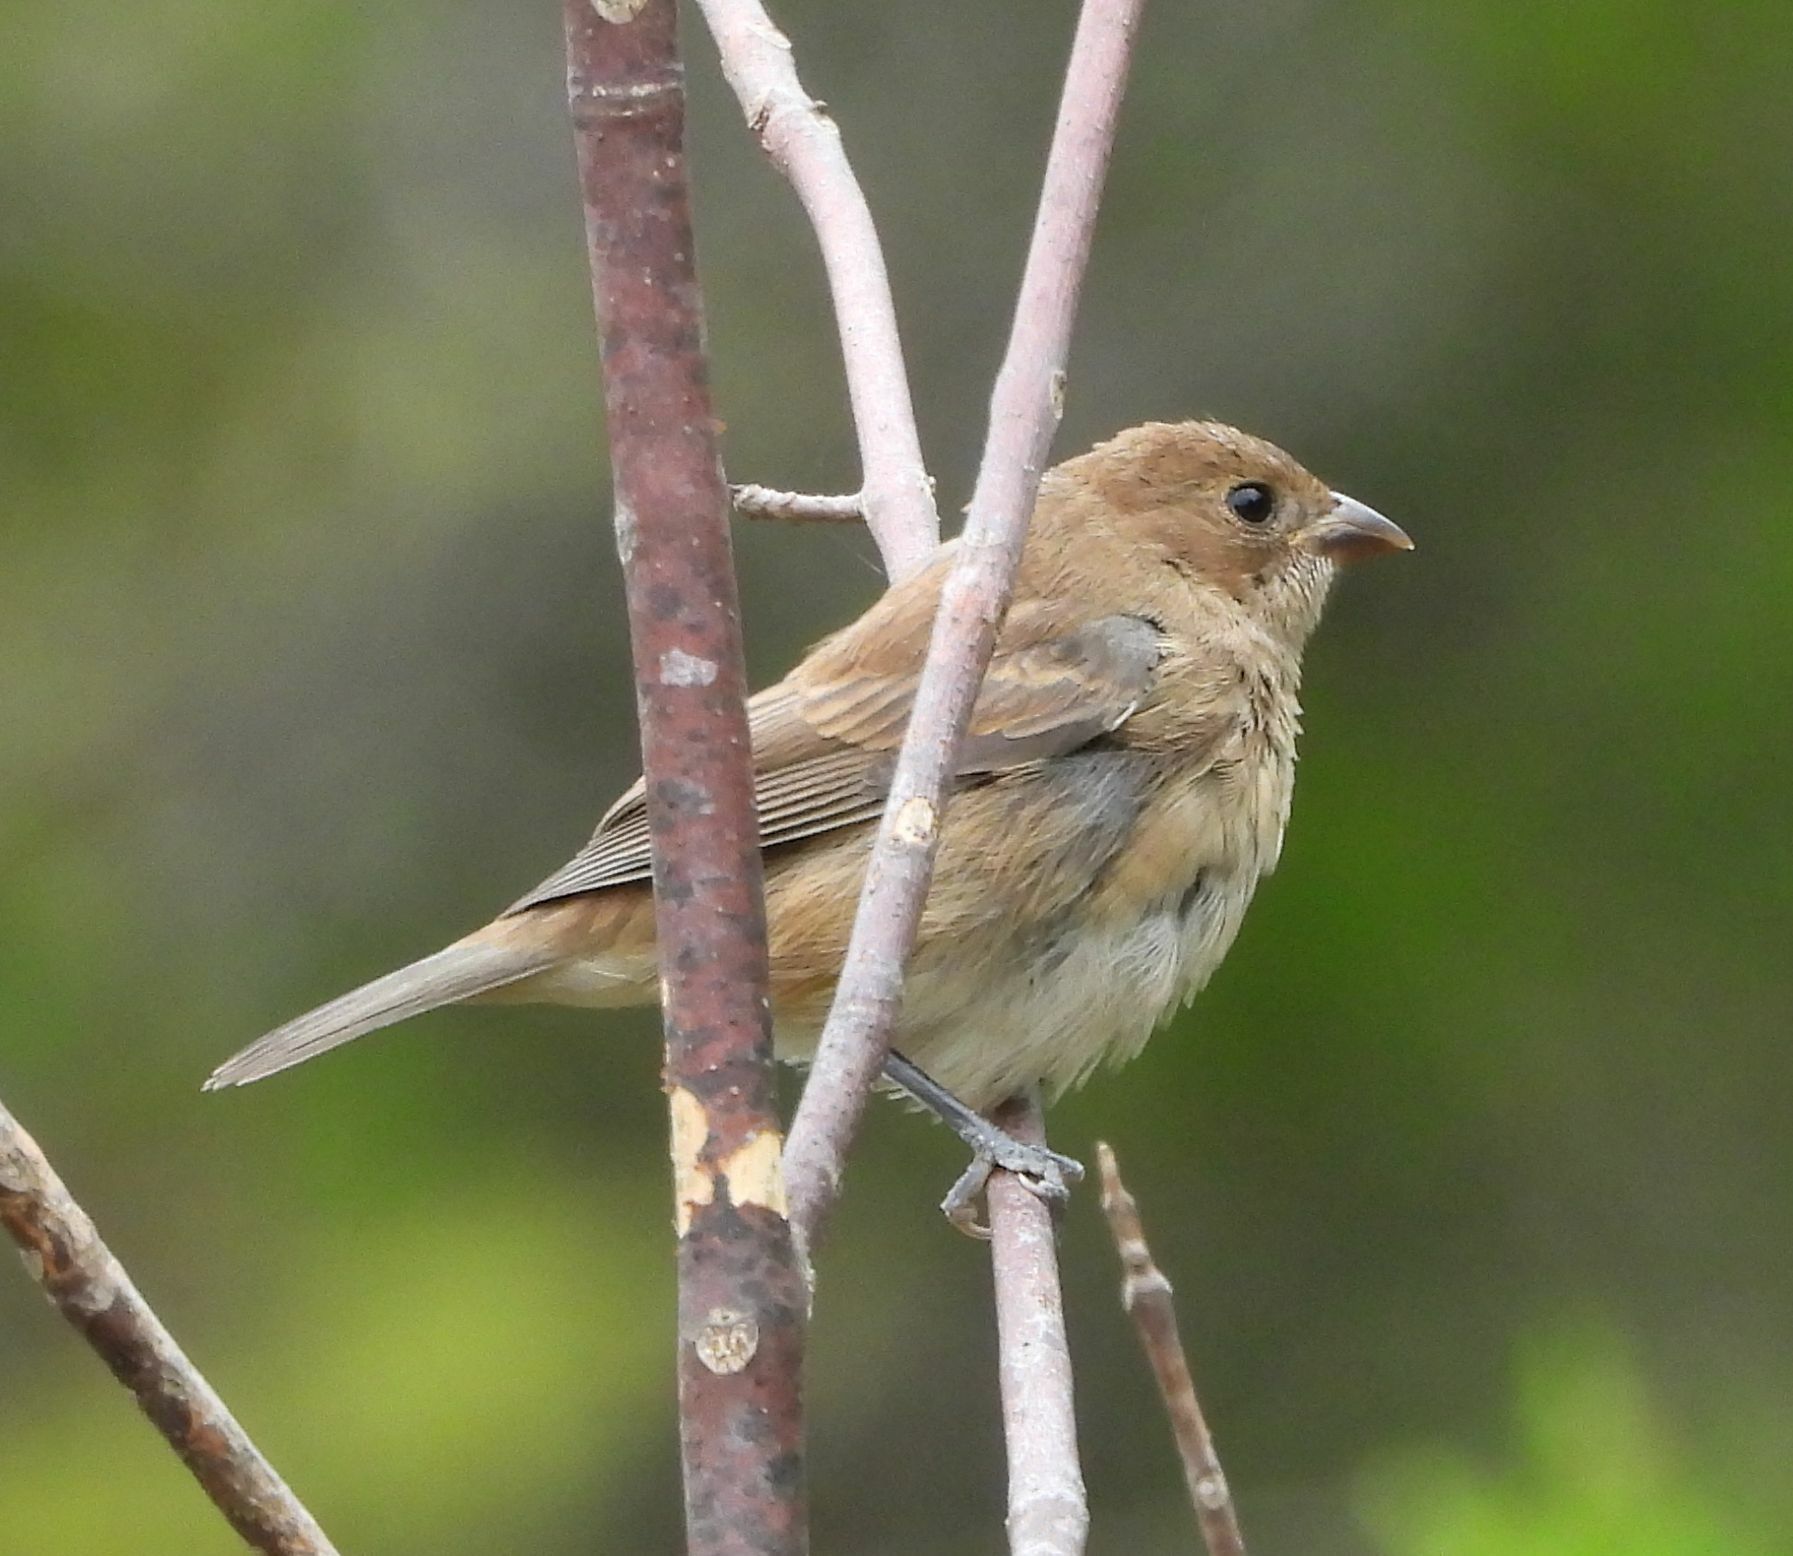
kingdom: Animalia
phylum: Chordata
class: Aves
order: Passeriformes
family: Cardinalidae
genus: Passerina
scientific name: Passerina cyanea
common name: Indigo bunting
